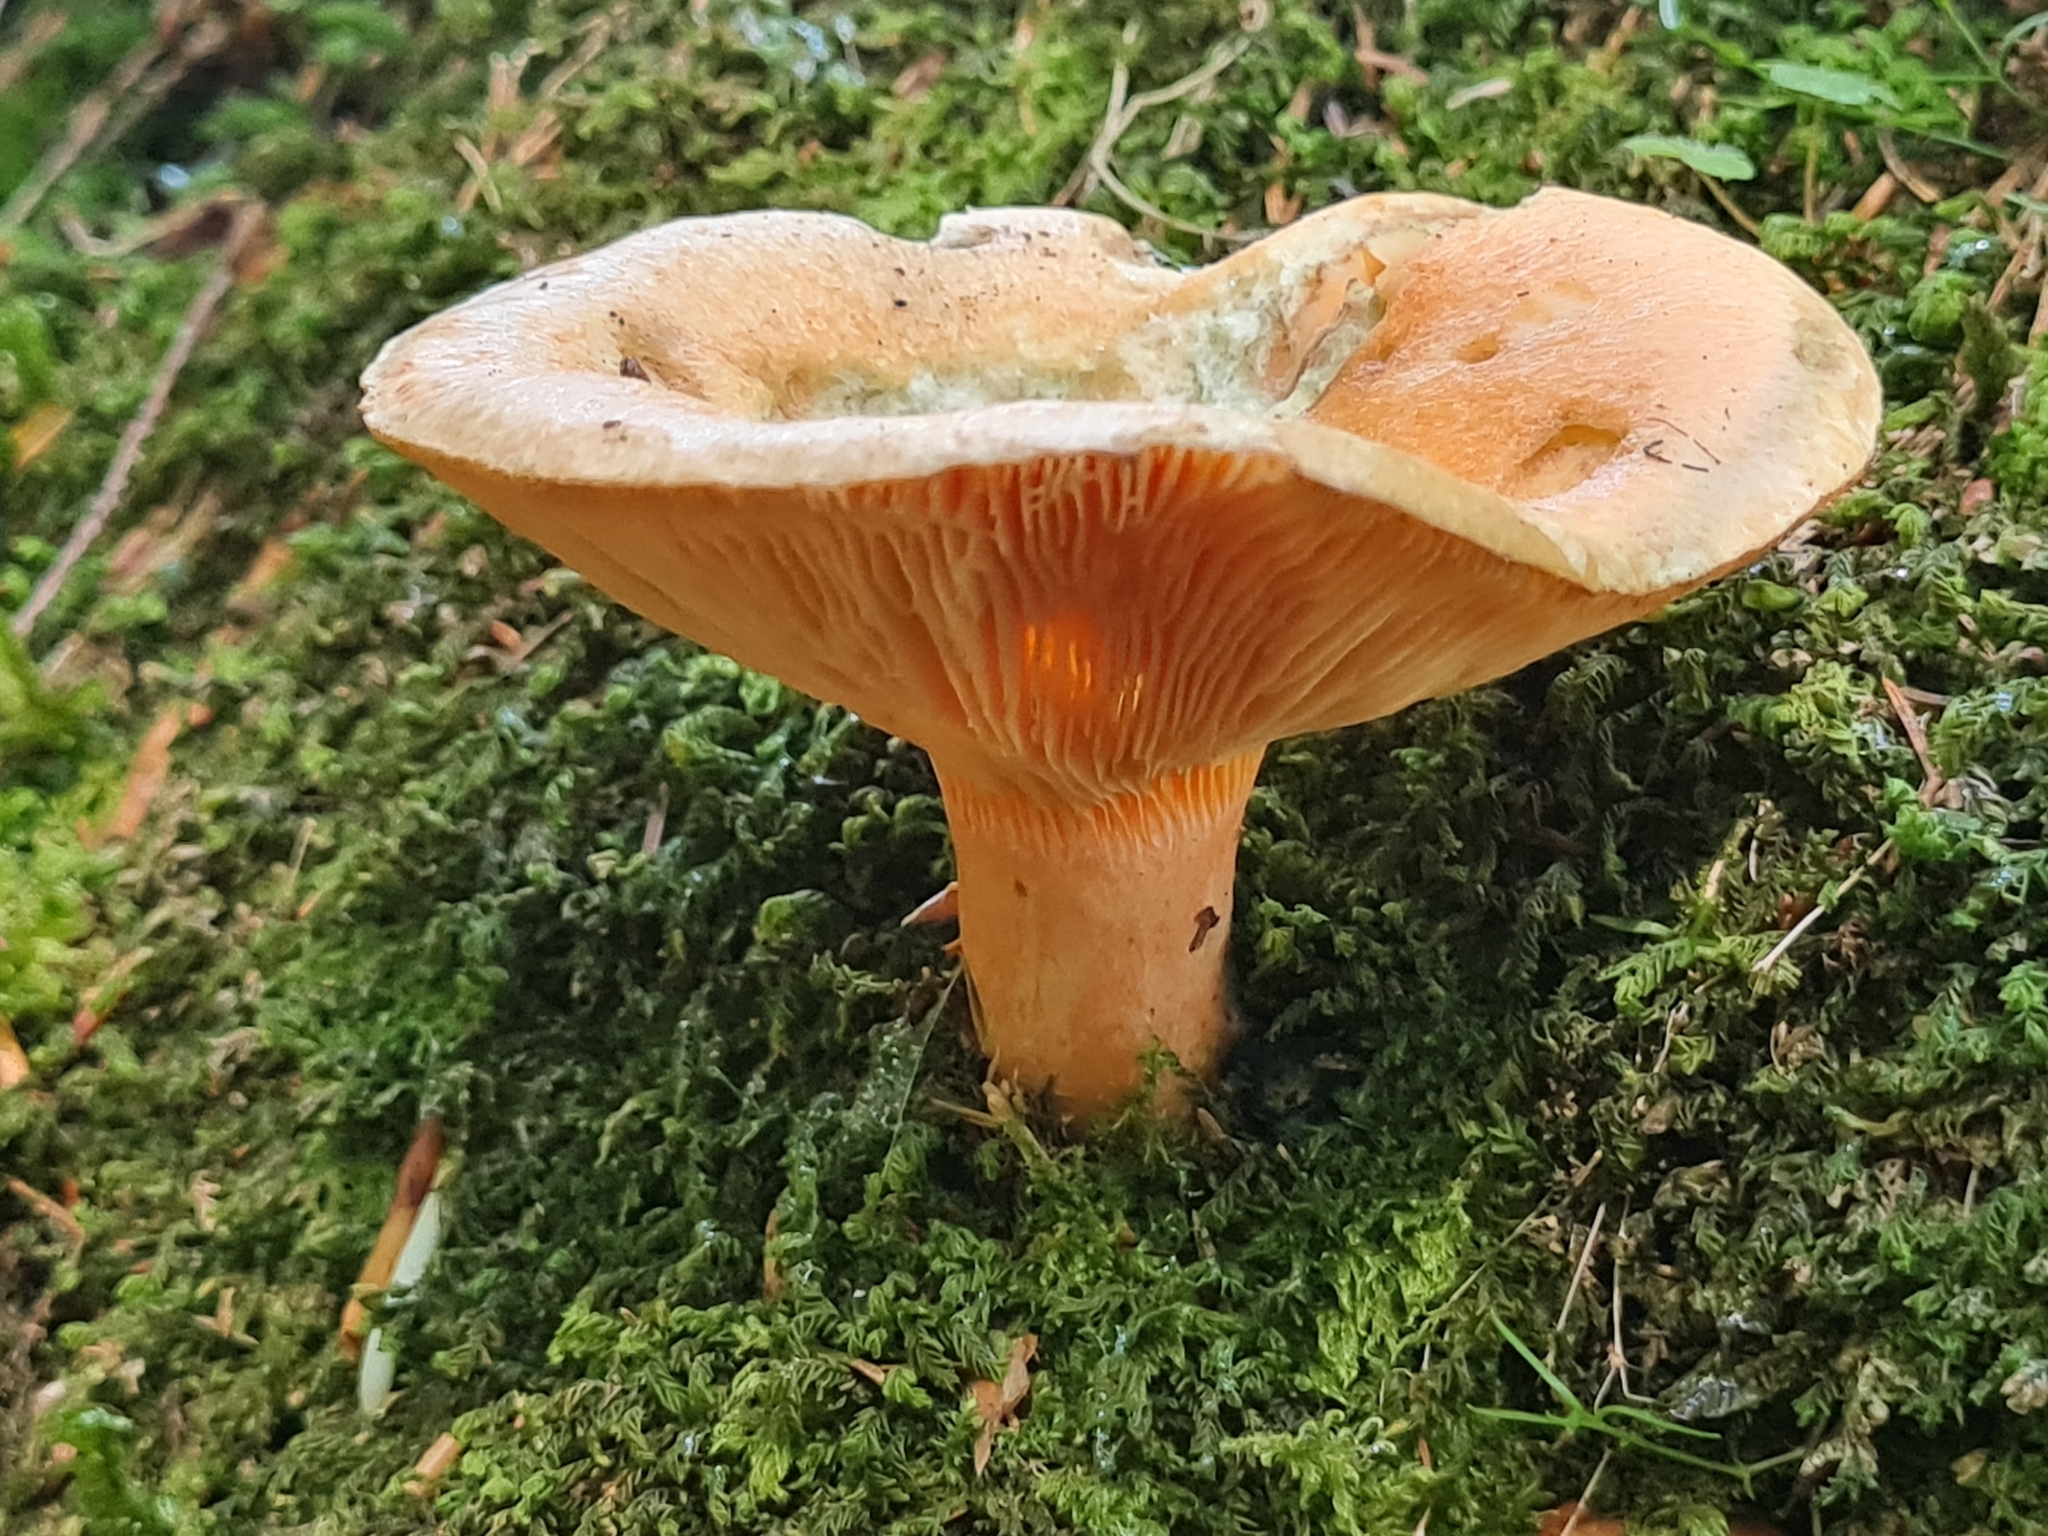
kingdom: Fungi
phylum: Basidiomycota
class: Agaricomycetes
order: Russulales
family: Russulaceae
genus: Lactarius
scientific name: Lactarius deterrimus
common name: False saffron milkcap
